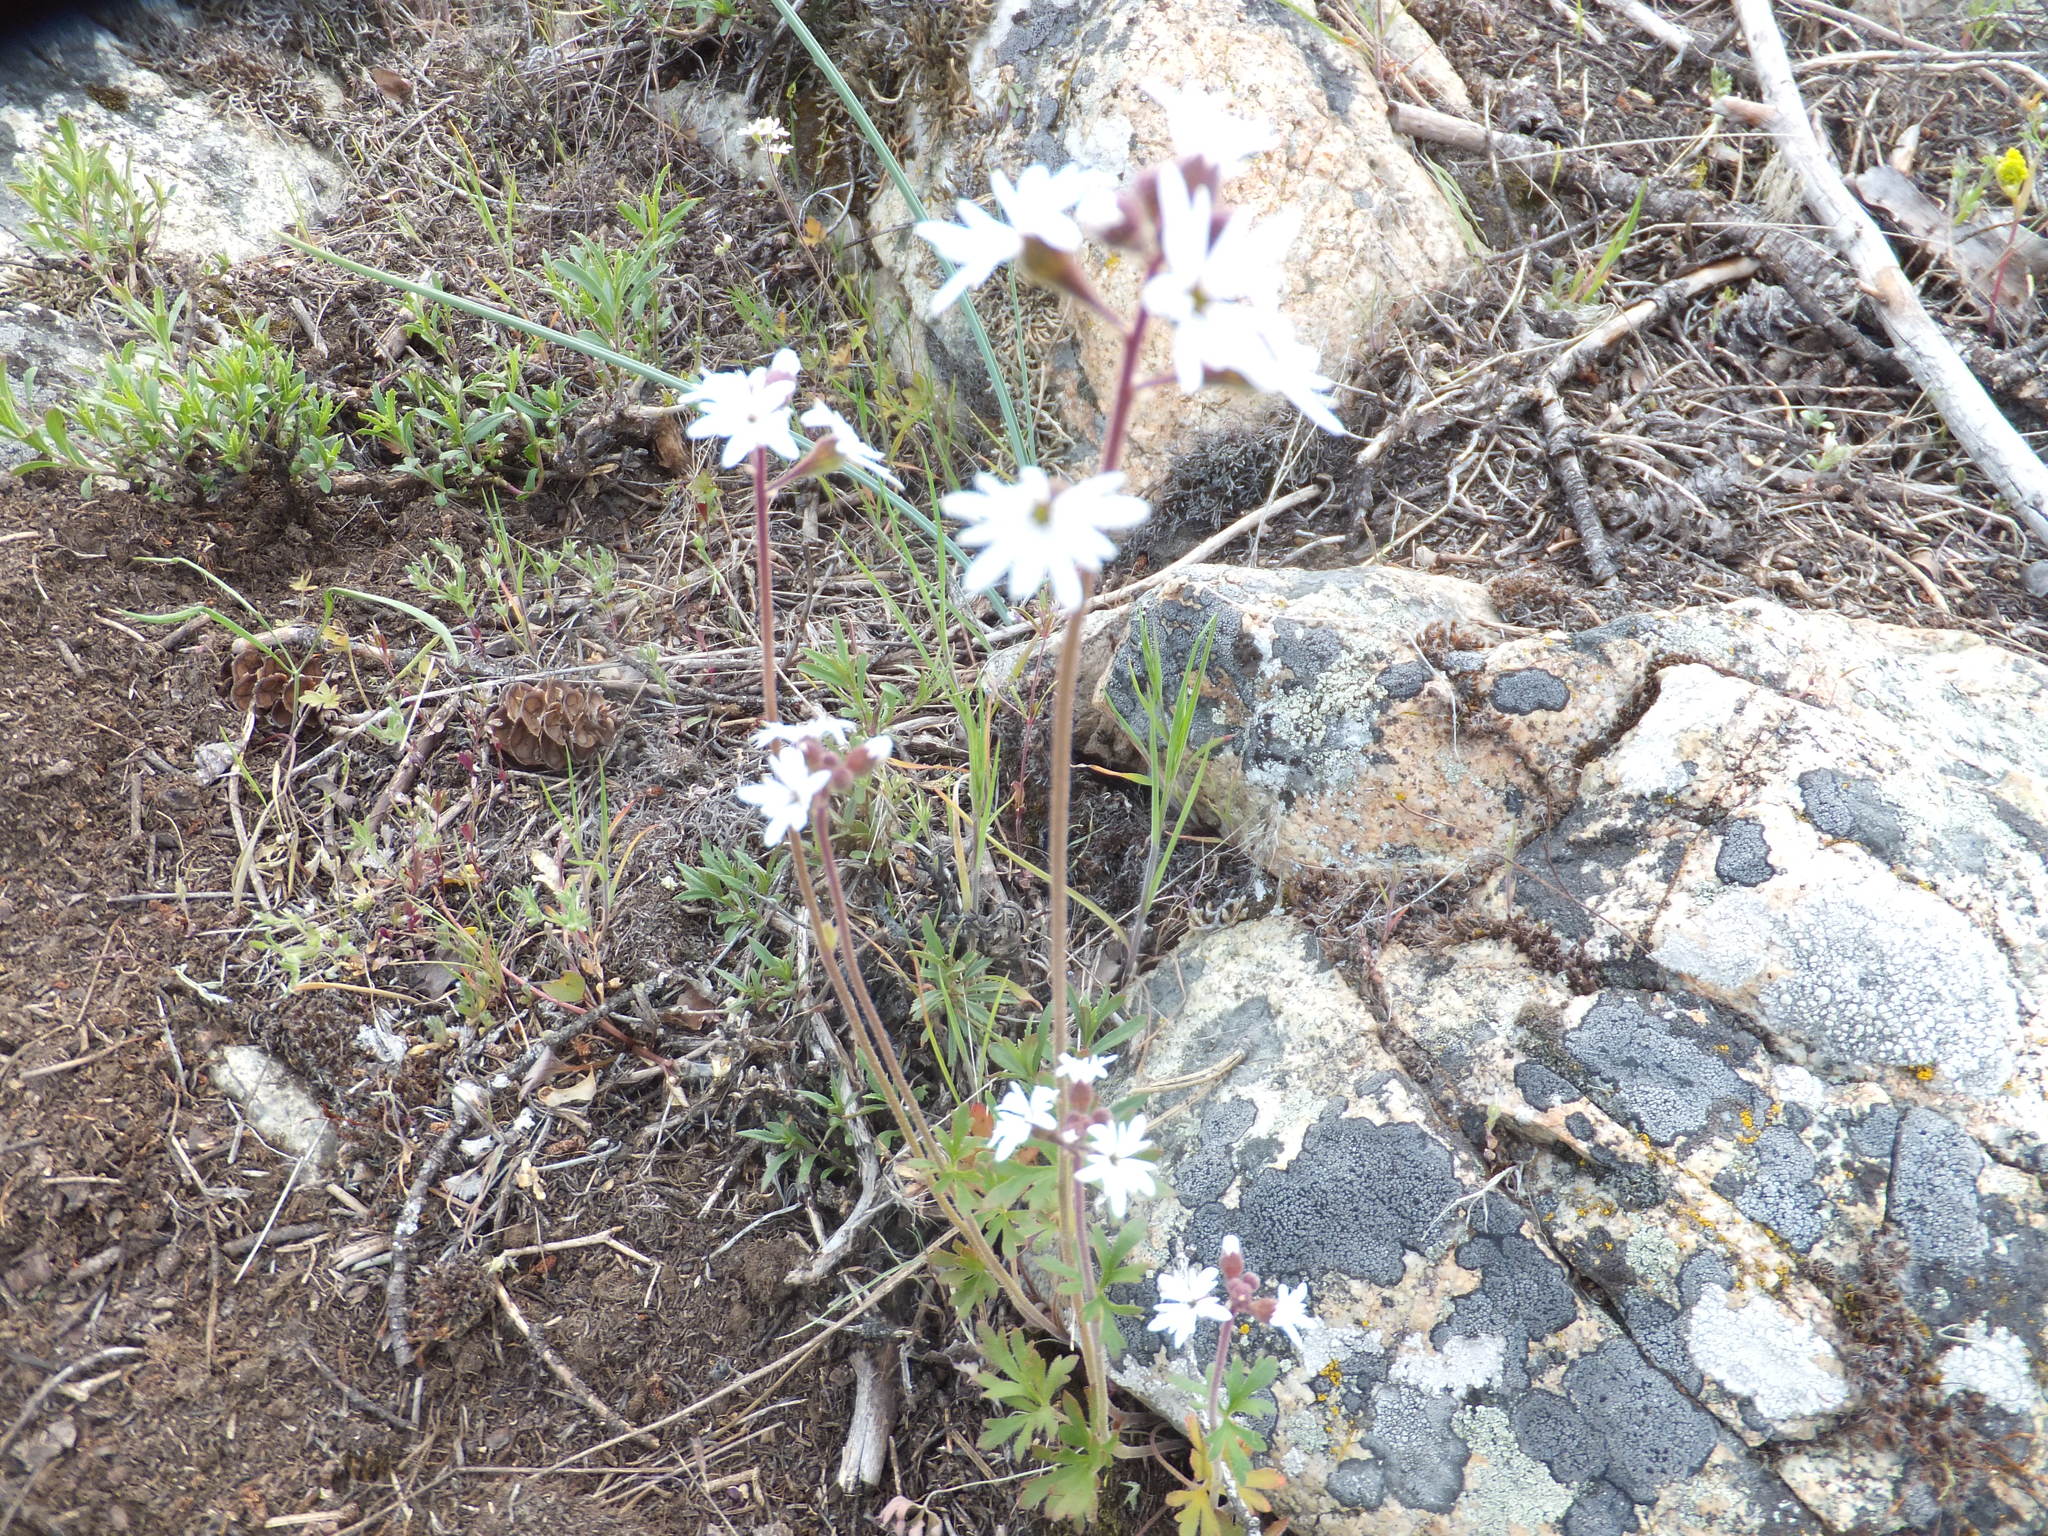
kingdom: Plantae
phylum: Tracheophyta
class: Magnoliopsida
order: Saxifragales
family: Saxifragaceae
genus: Lithophragma
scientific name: Lithophragma parviflorum
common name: Small-flowered fringe-cup
